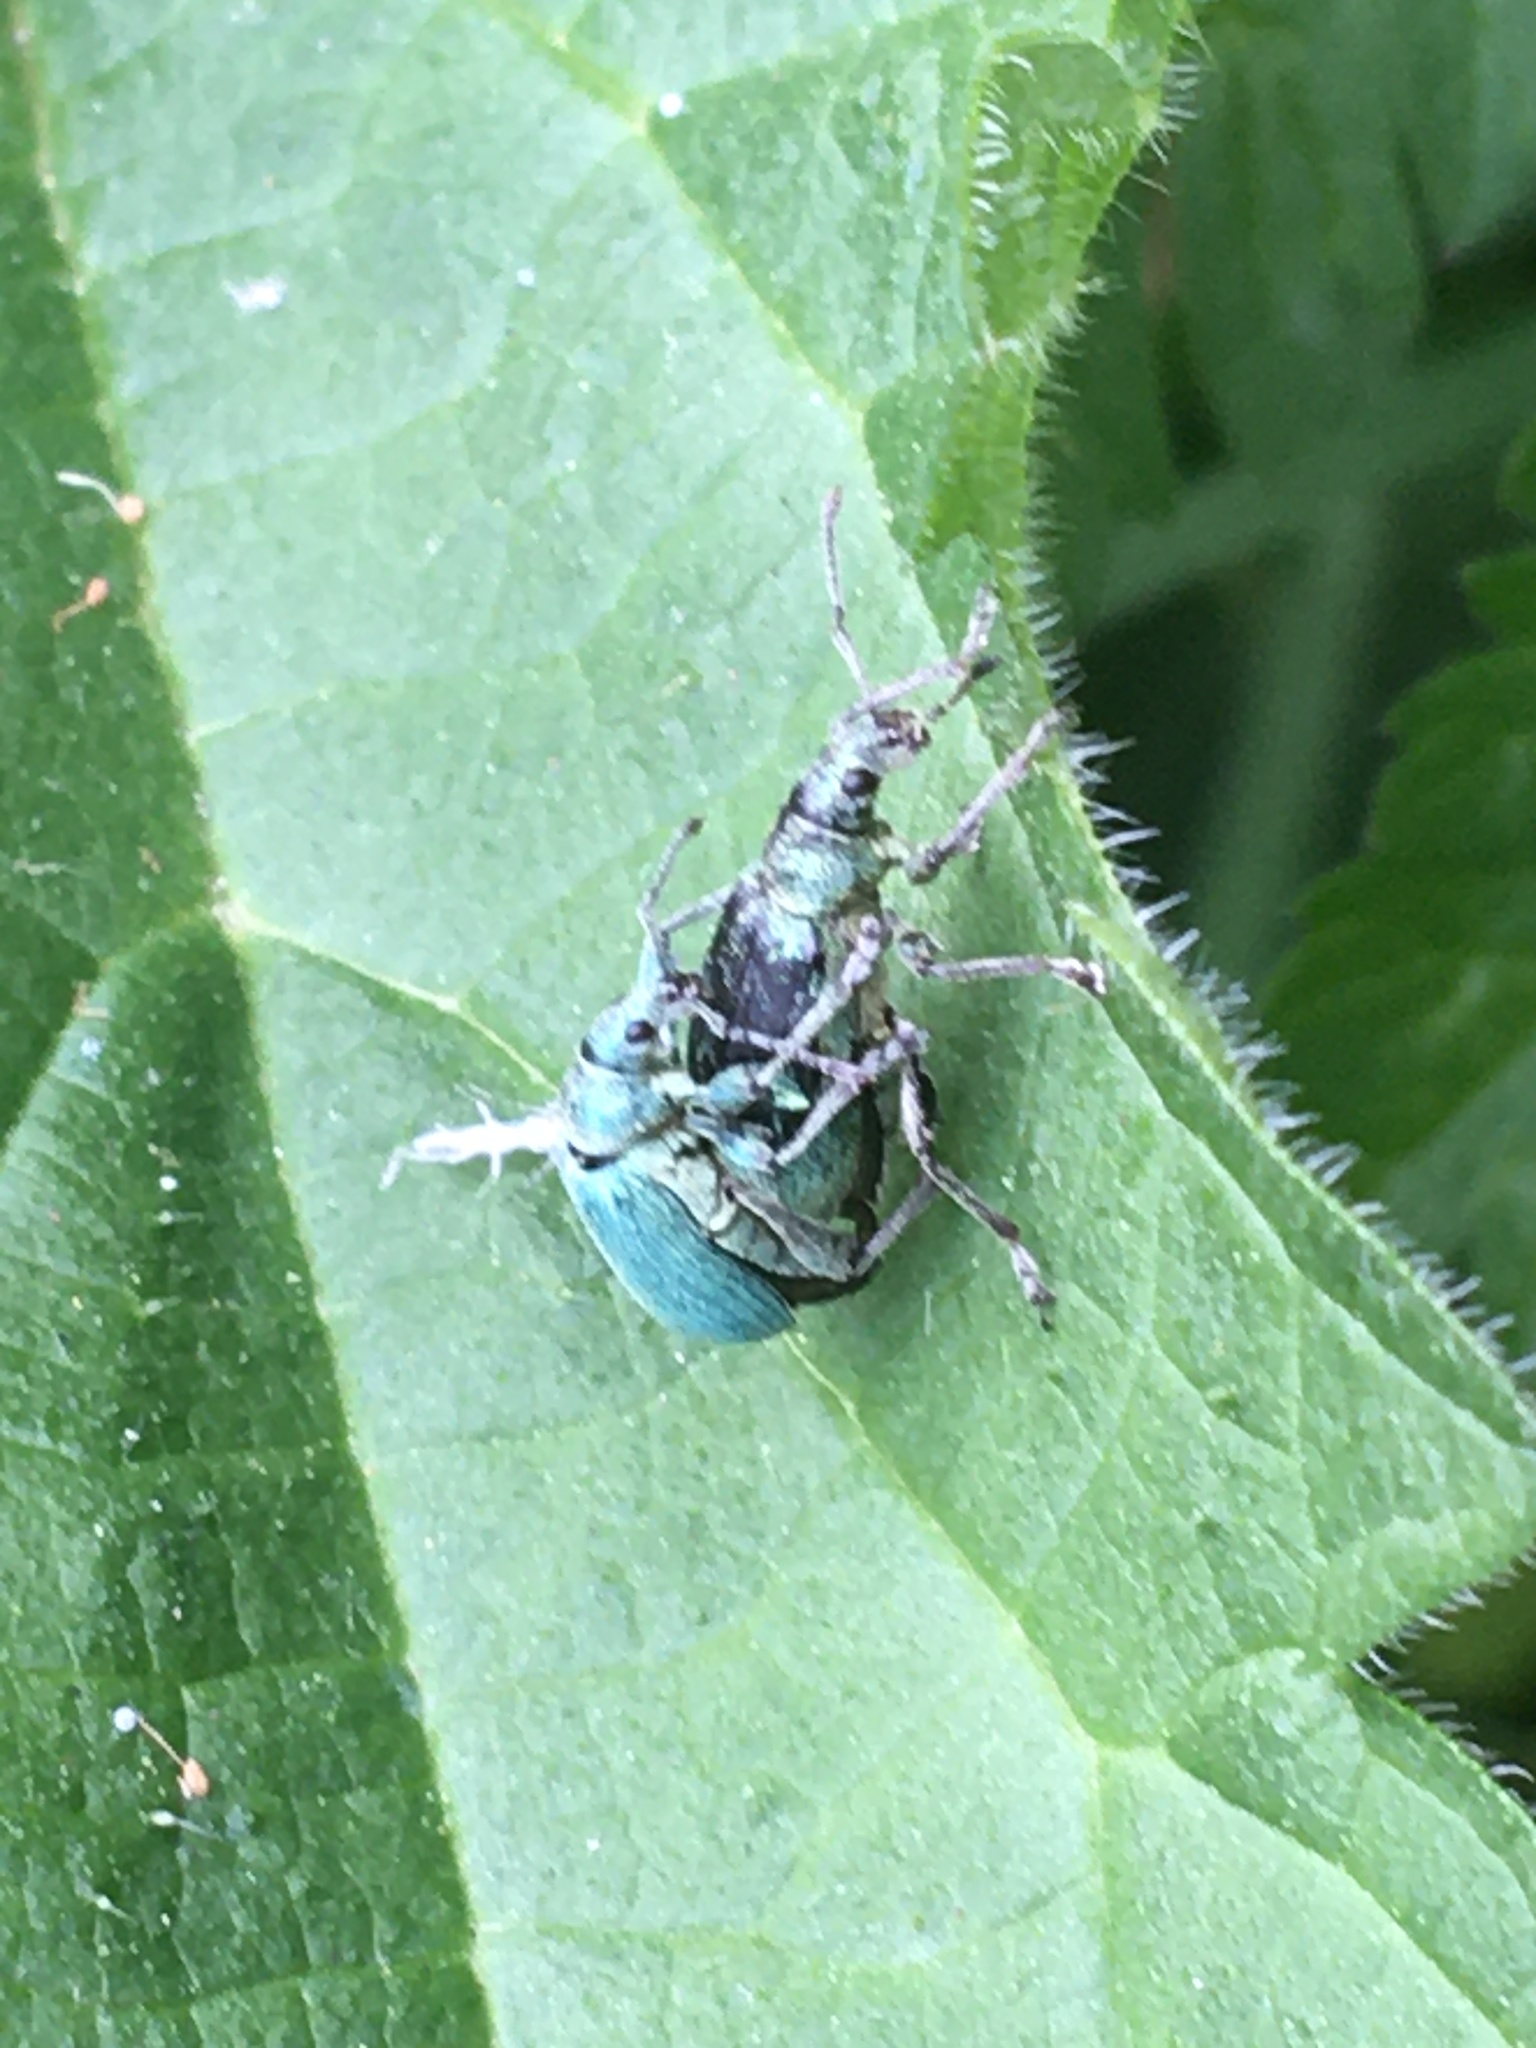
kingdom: Animalia
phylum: Arthropoda
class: Insecta
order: Coleoptera
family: Curculionidae
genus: Phyllobius
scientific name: Phyllobius pomaceus
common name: Green nettle weevil
